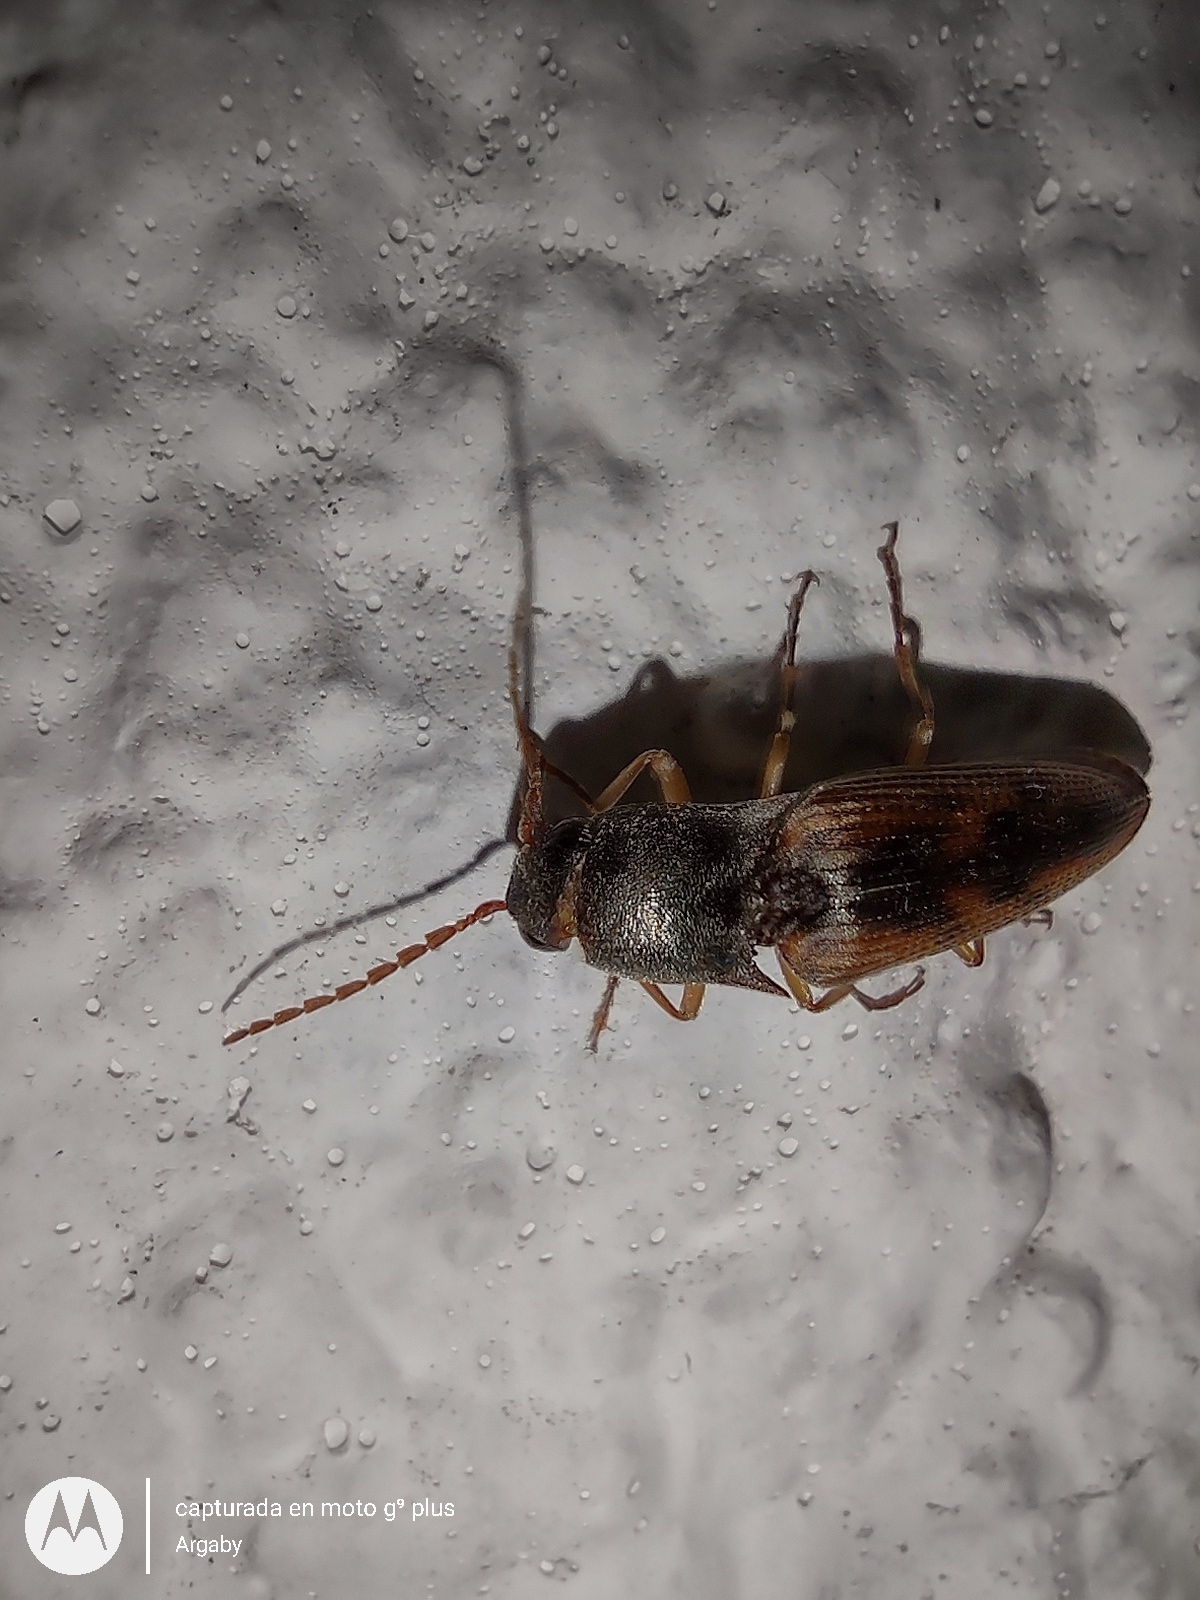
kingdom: Animalia
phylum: Arthropoda
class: Insecta
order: Coleoptera
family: Elateridae
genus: Monocrepidius
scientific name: Monocrepidius
